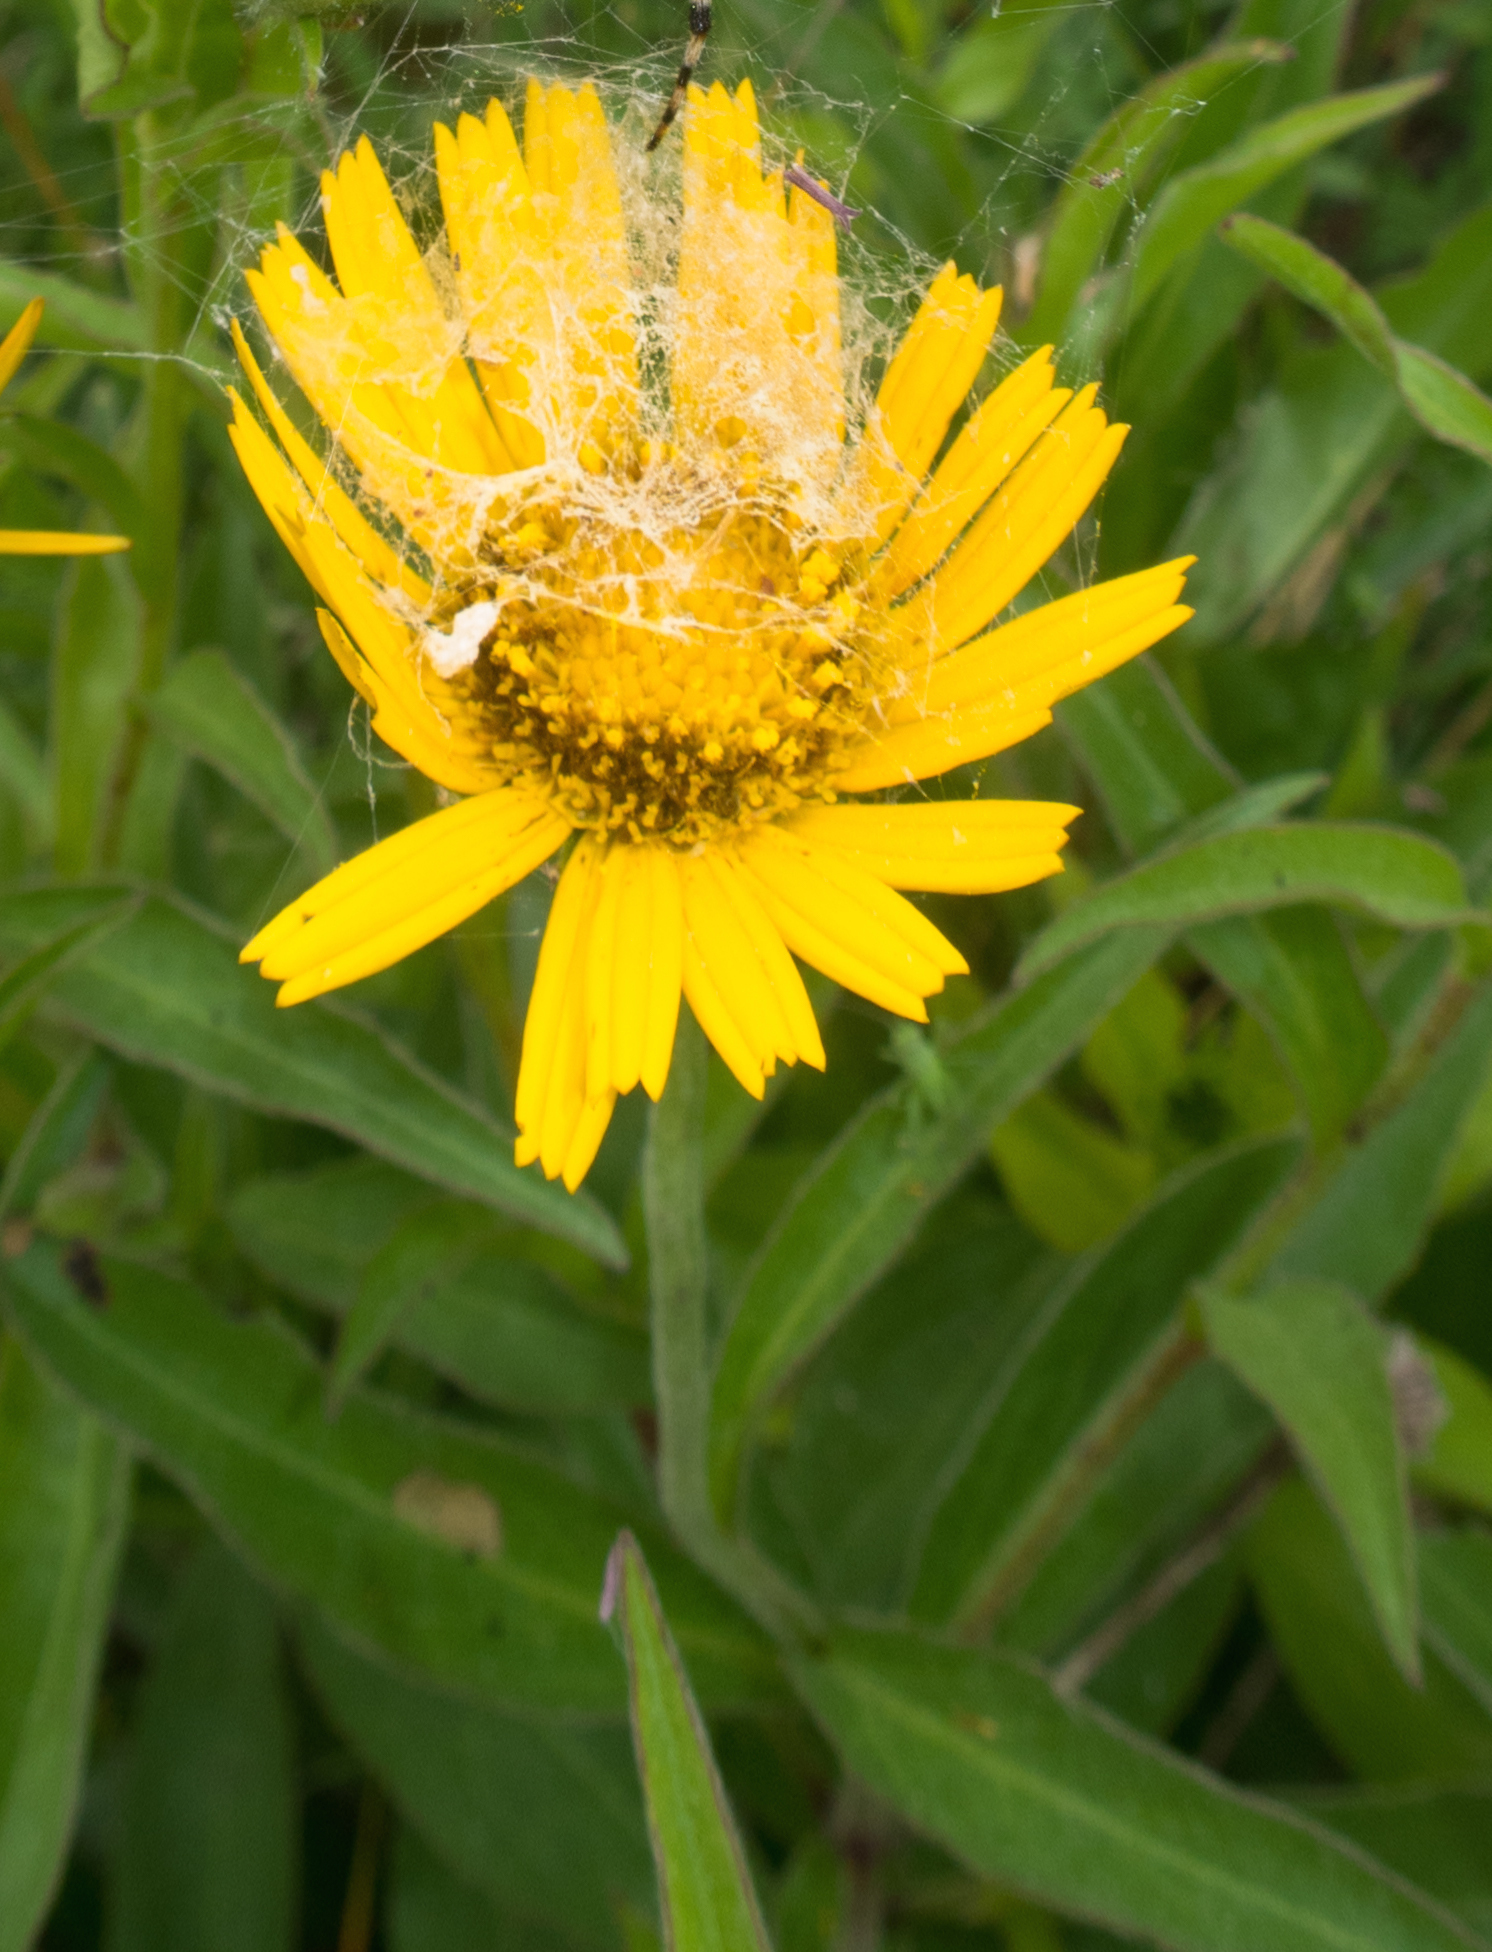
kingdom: Plantae
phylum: Tracheophyta
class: Magnoliopsida
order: Asterales
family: Asteraceae
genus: Buphthalmum
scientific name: Buphthalmum salicifolium
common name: Willow-leaved yellow-oxeye
